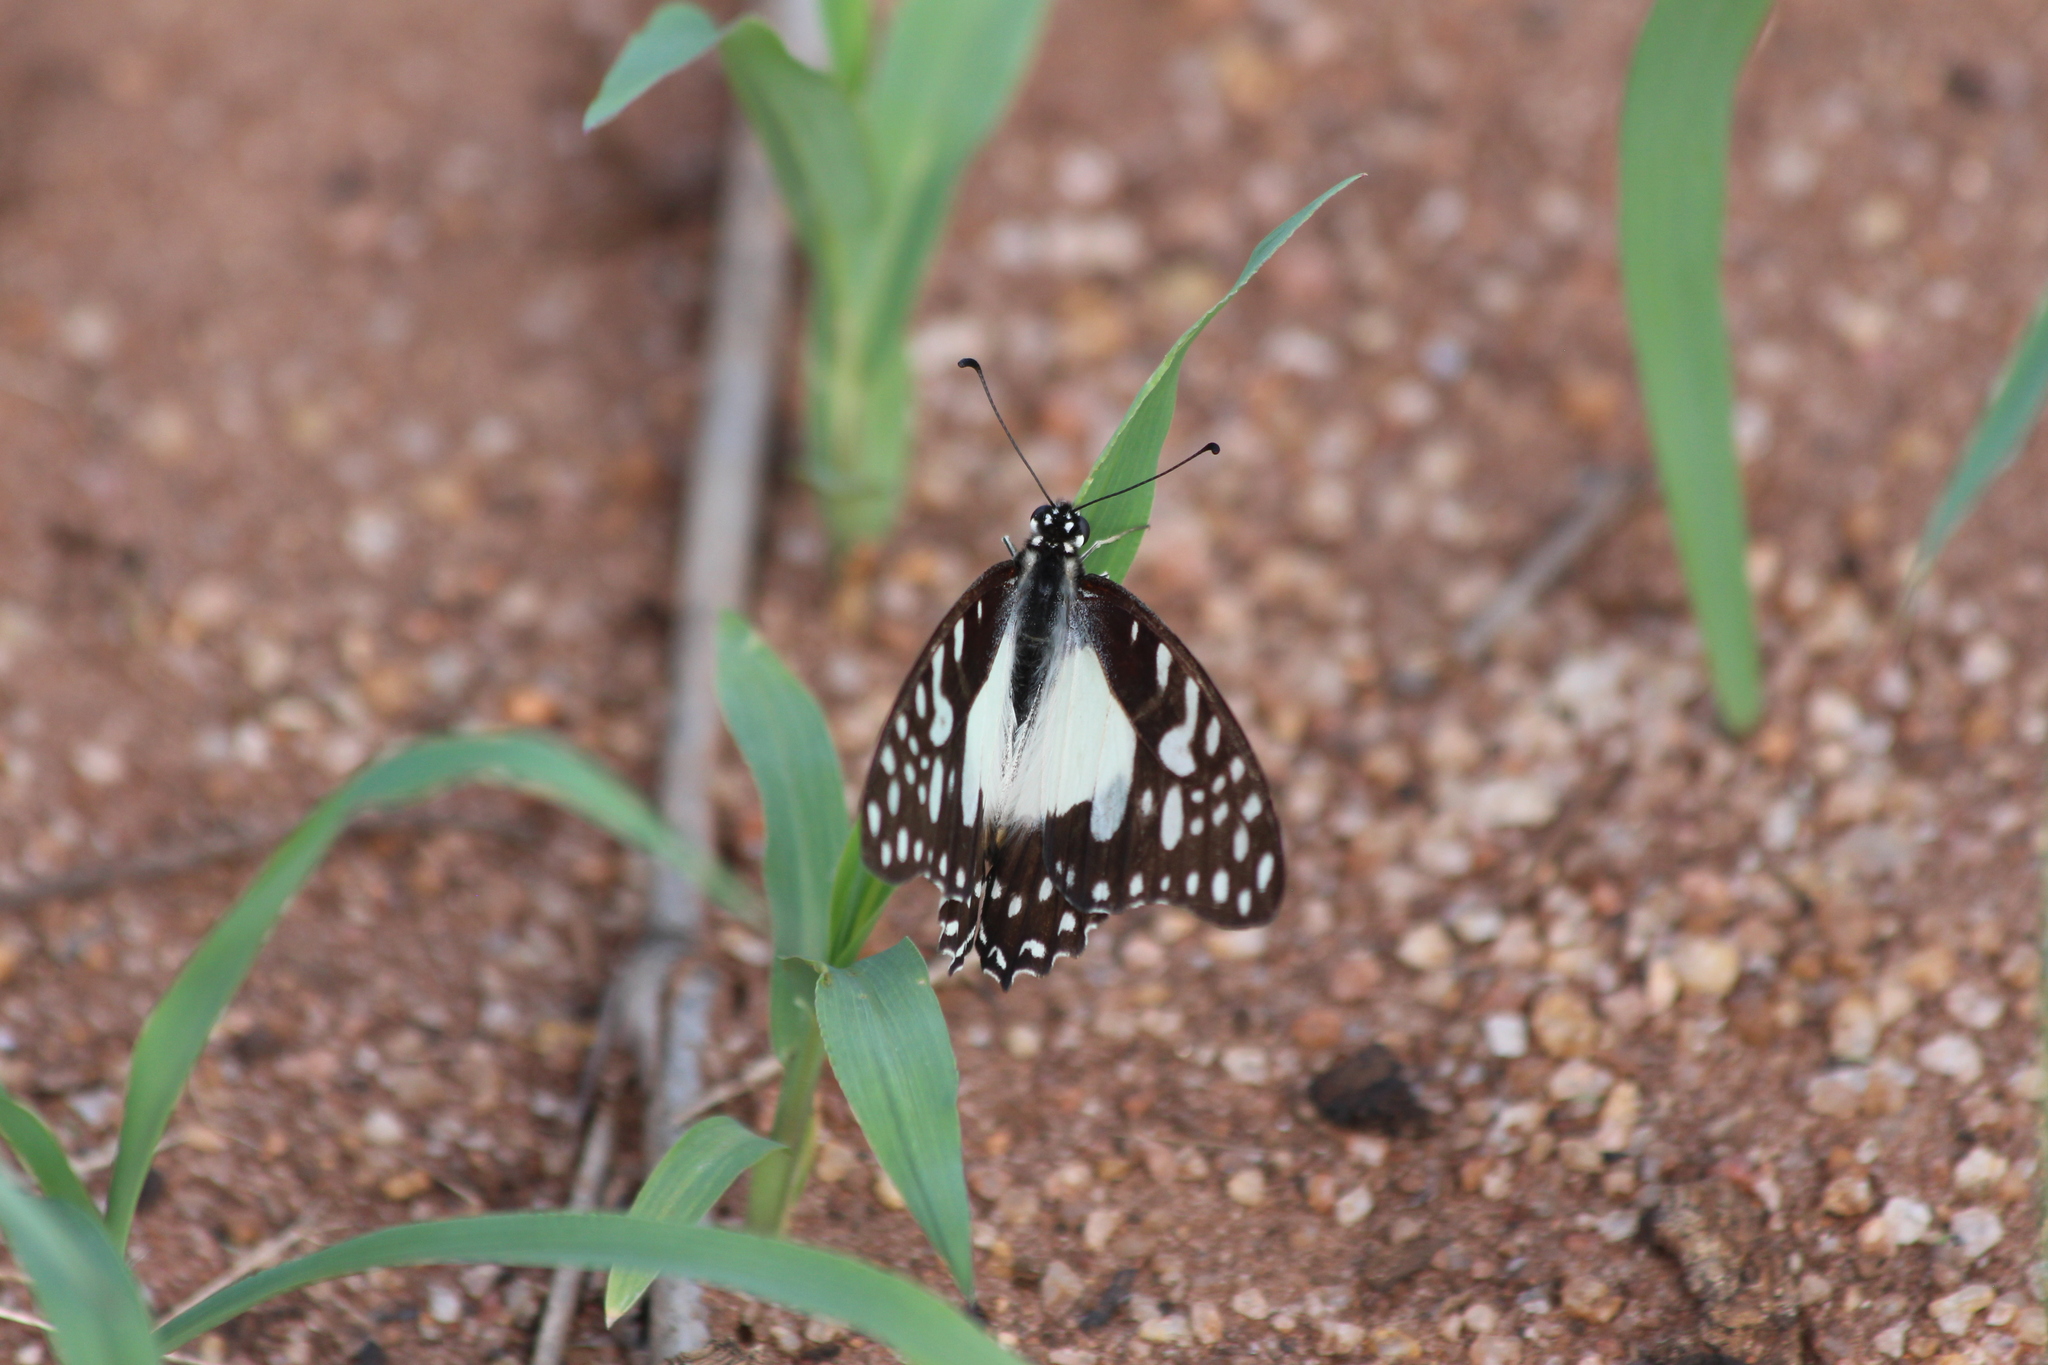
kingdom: Animalia
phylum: Arthropoda
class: Insecta
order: Lepidoptera
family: Papilionidae
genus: Graphium
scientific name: Graphium angolanus
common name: Angola white-lady swordtail
